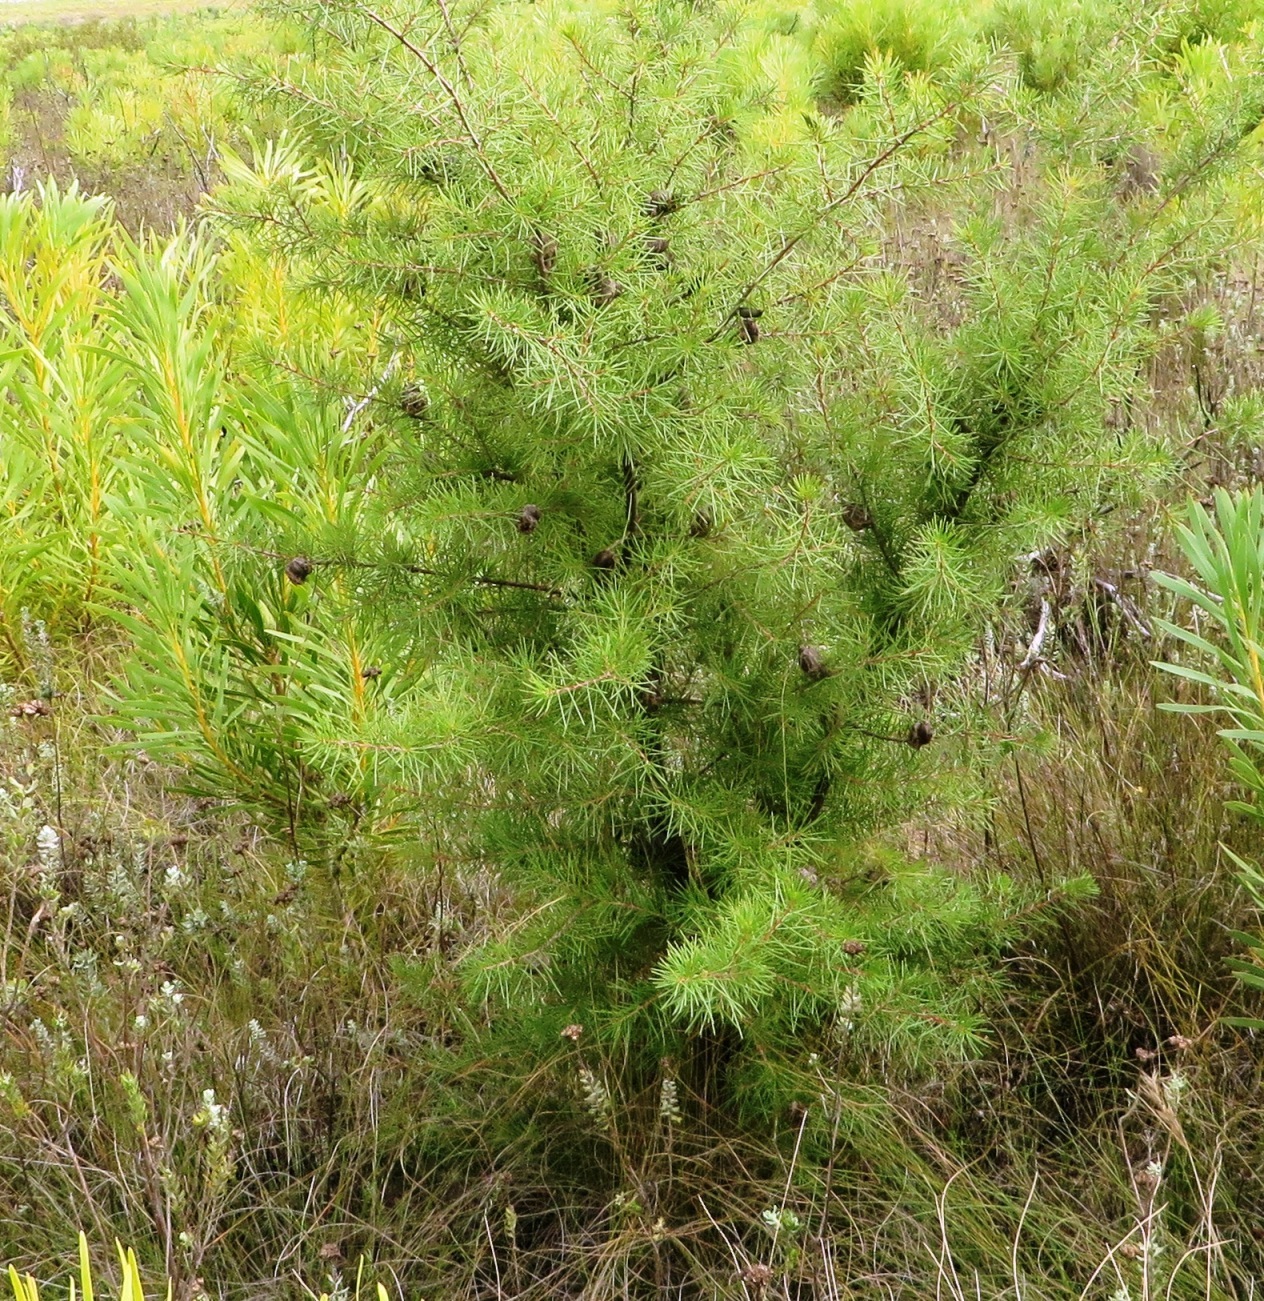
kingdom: Plantae
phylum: Tracheophyta
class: Magnoliopsida
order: Proteales
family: Proteaceae
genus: Hakea
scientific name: Hakea sericea
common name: Needle bush
